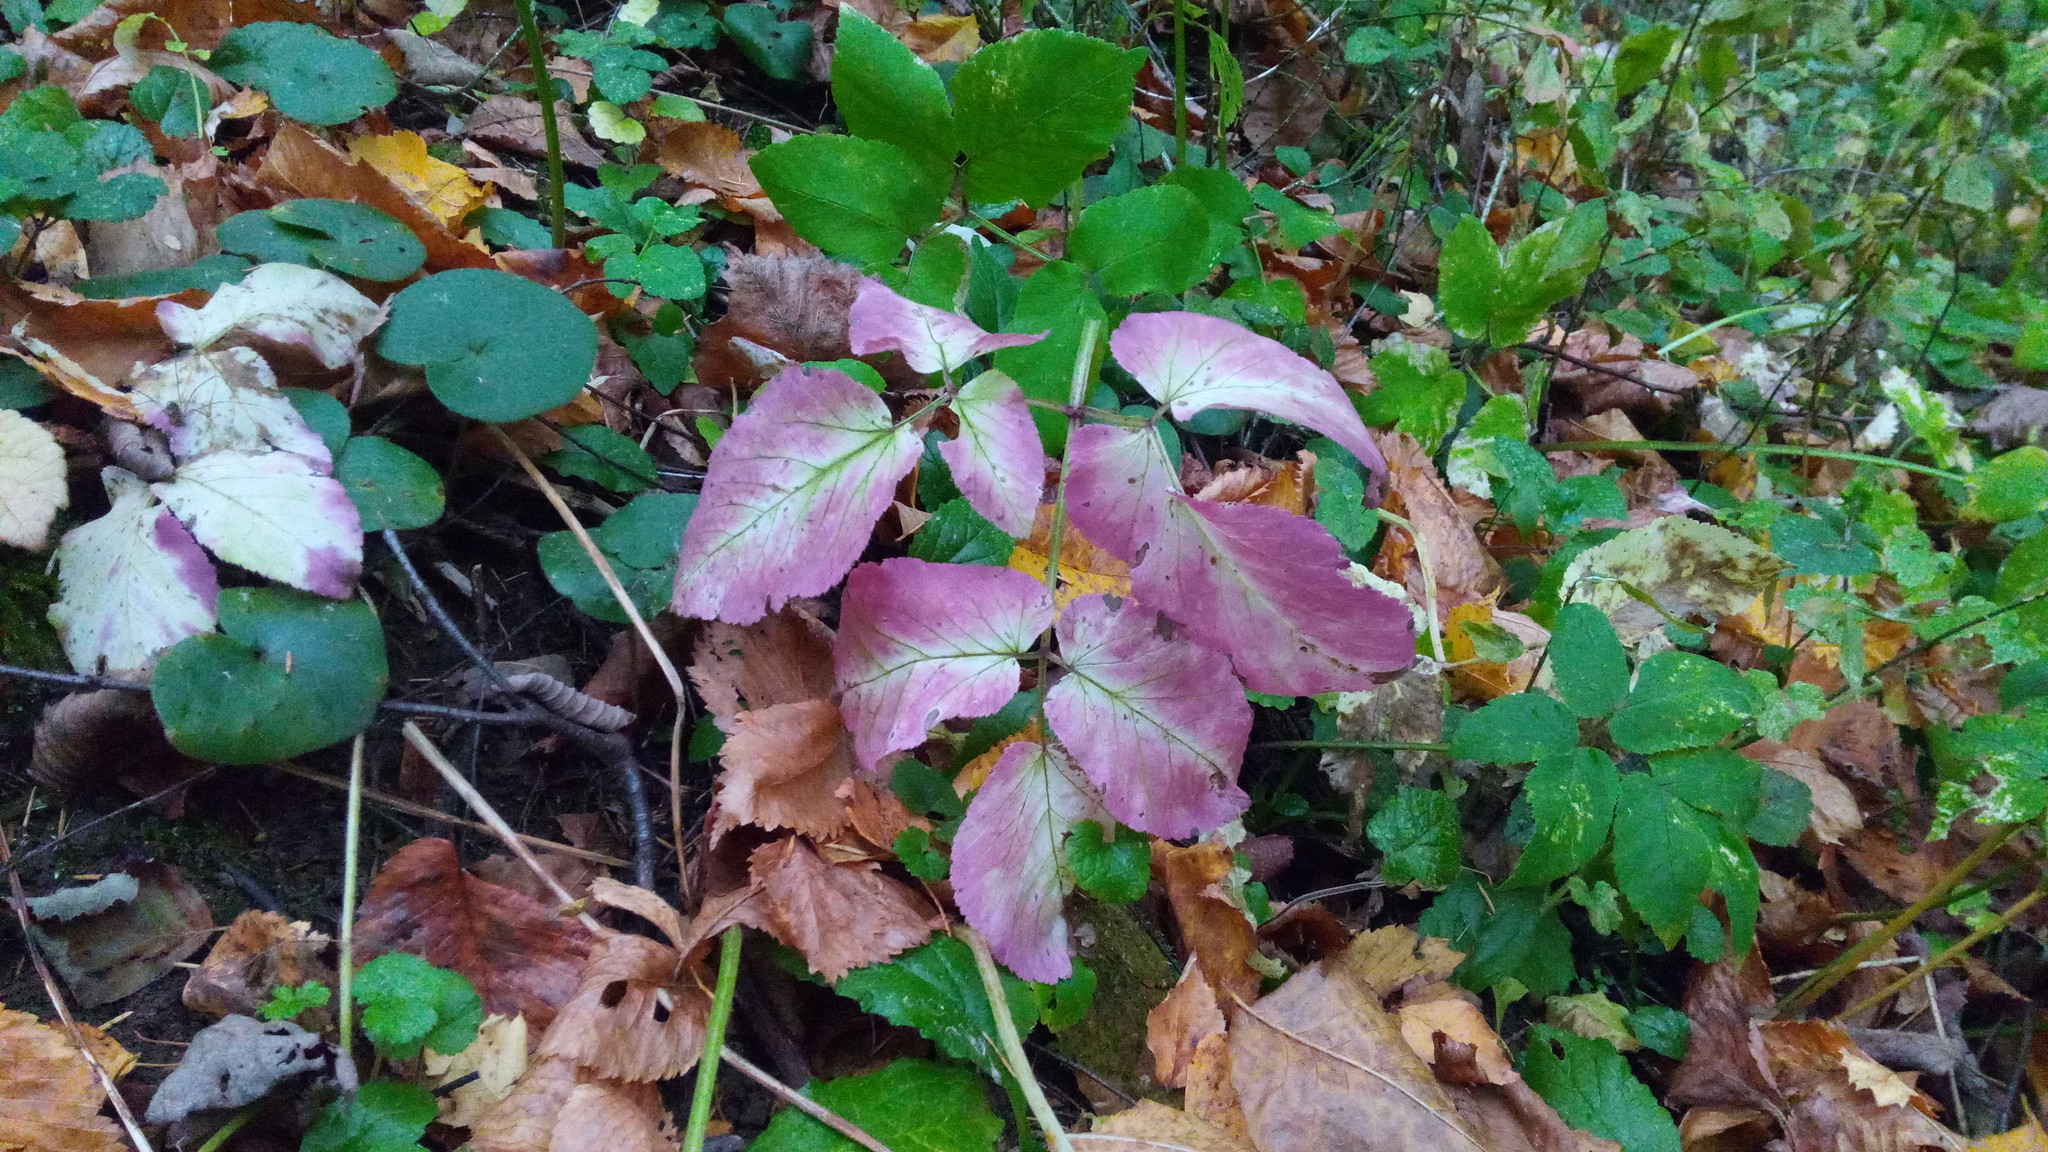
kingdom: Plantae
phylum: Tracheophyta
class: Magnoliopsida
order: Apiales
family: Apiaceae
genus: Aegopodium
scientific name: Aegopodium podagraria
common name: Ground-elder
